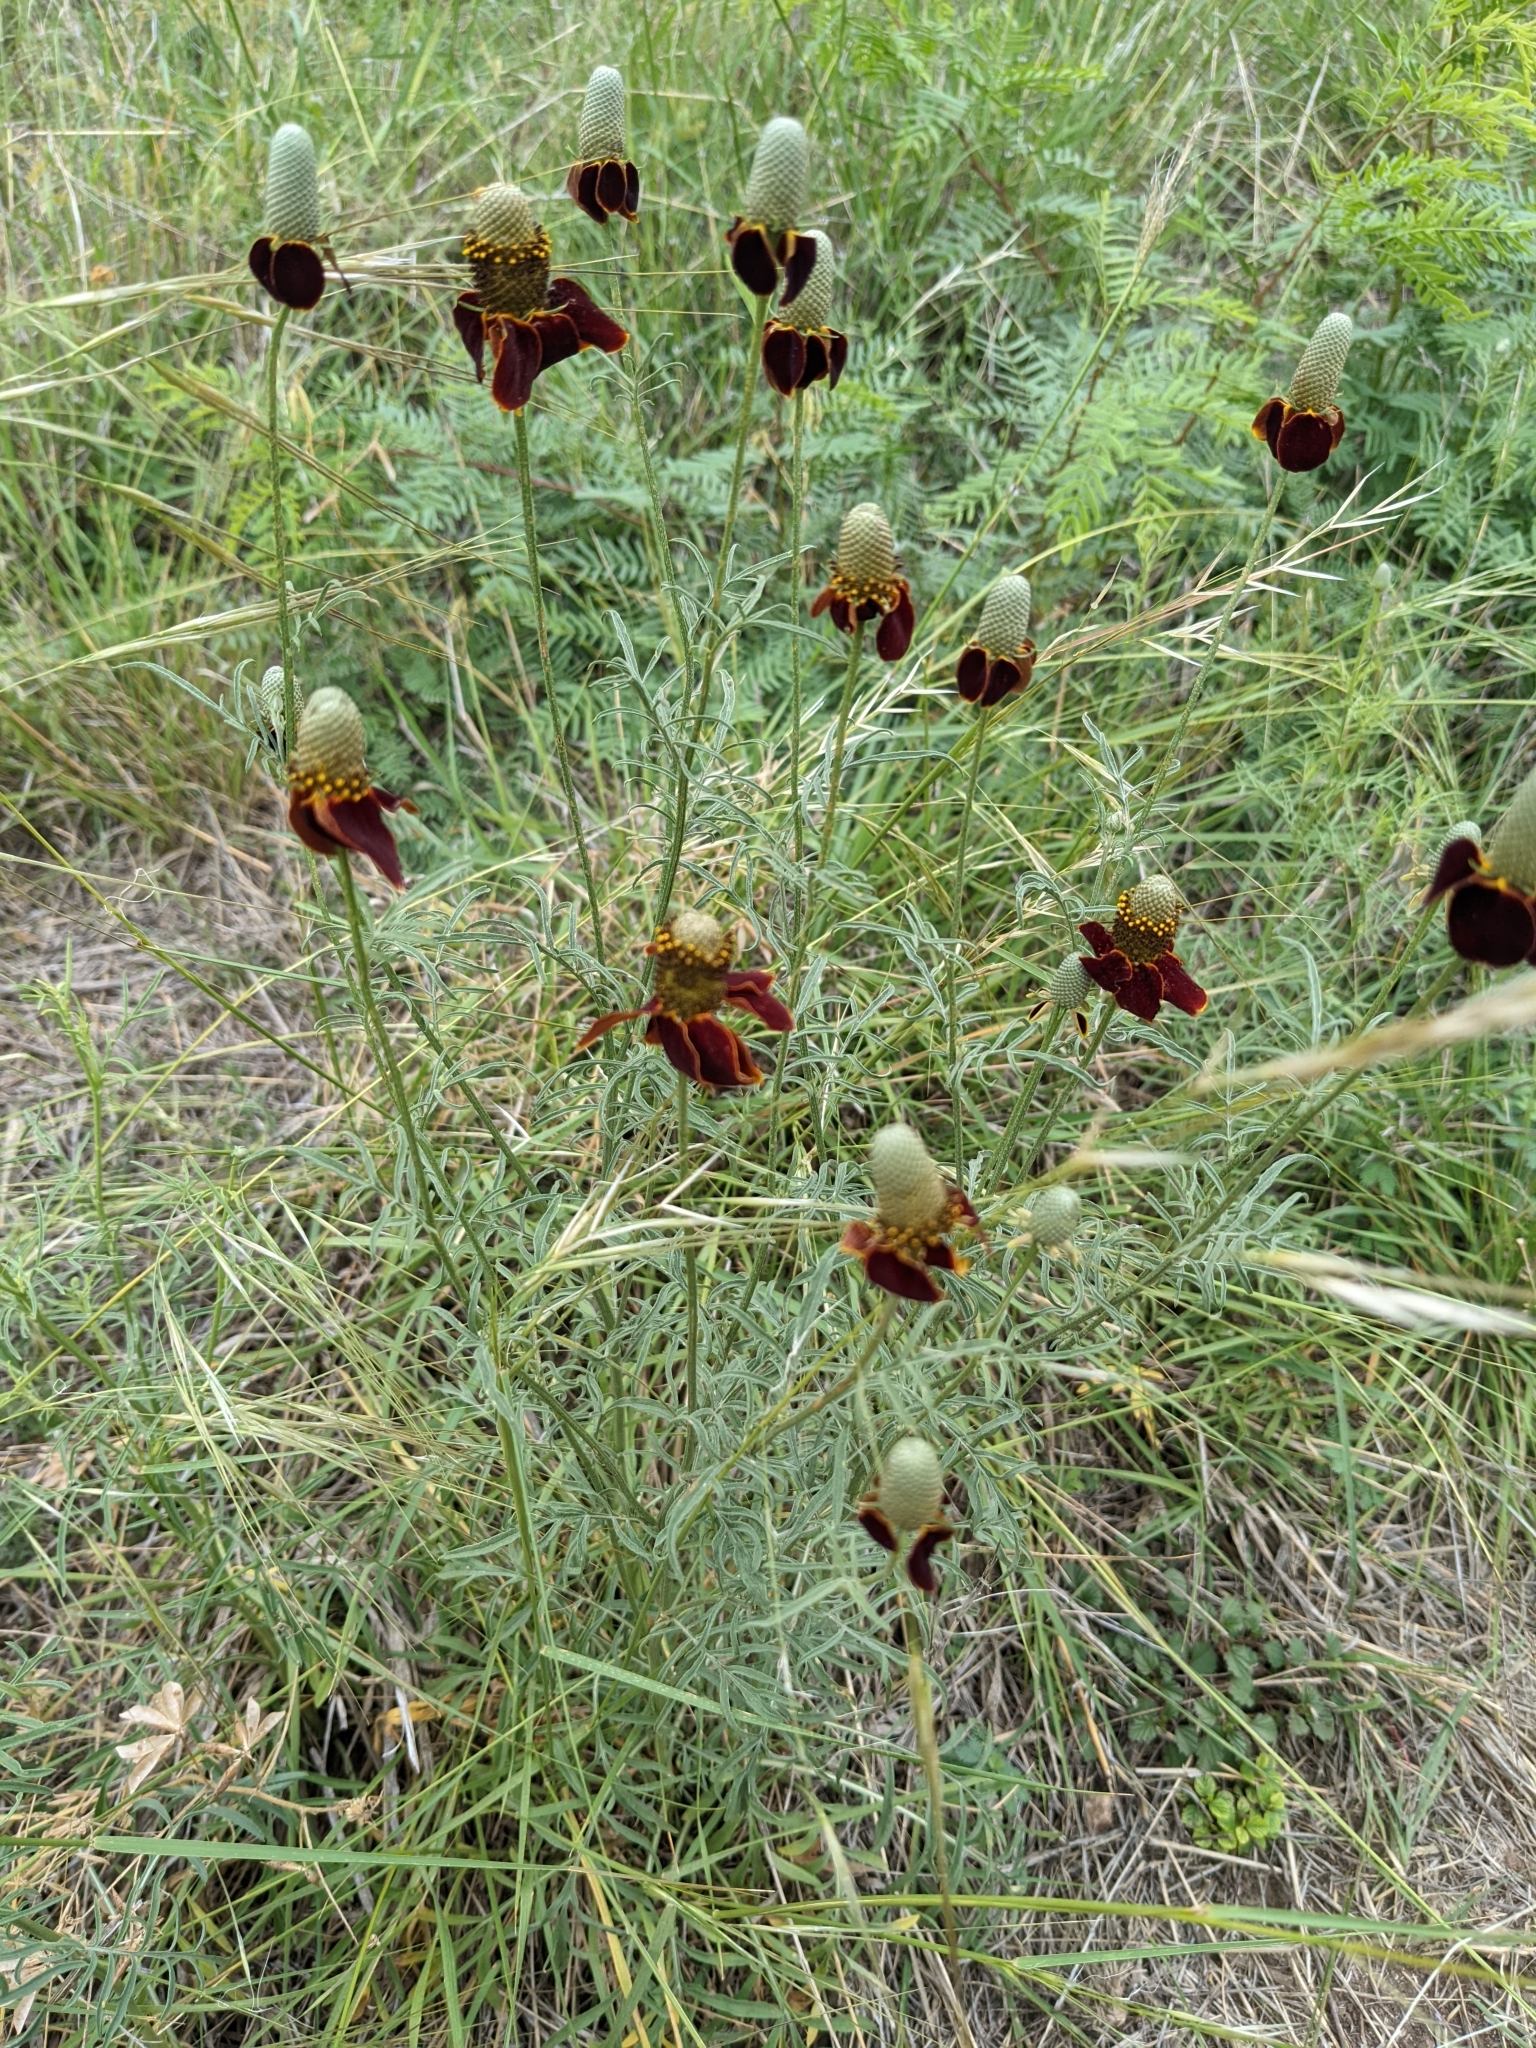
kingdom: Plantae
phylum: Tracheophyta
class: Magnoliopsida
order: Asterales
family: Asteraceae
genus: Ratibida
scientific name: Ratibida columnifera
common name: Prairie coneflower
